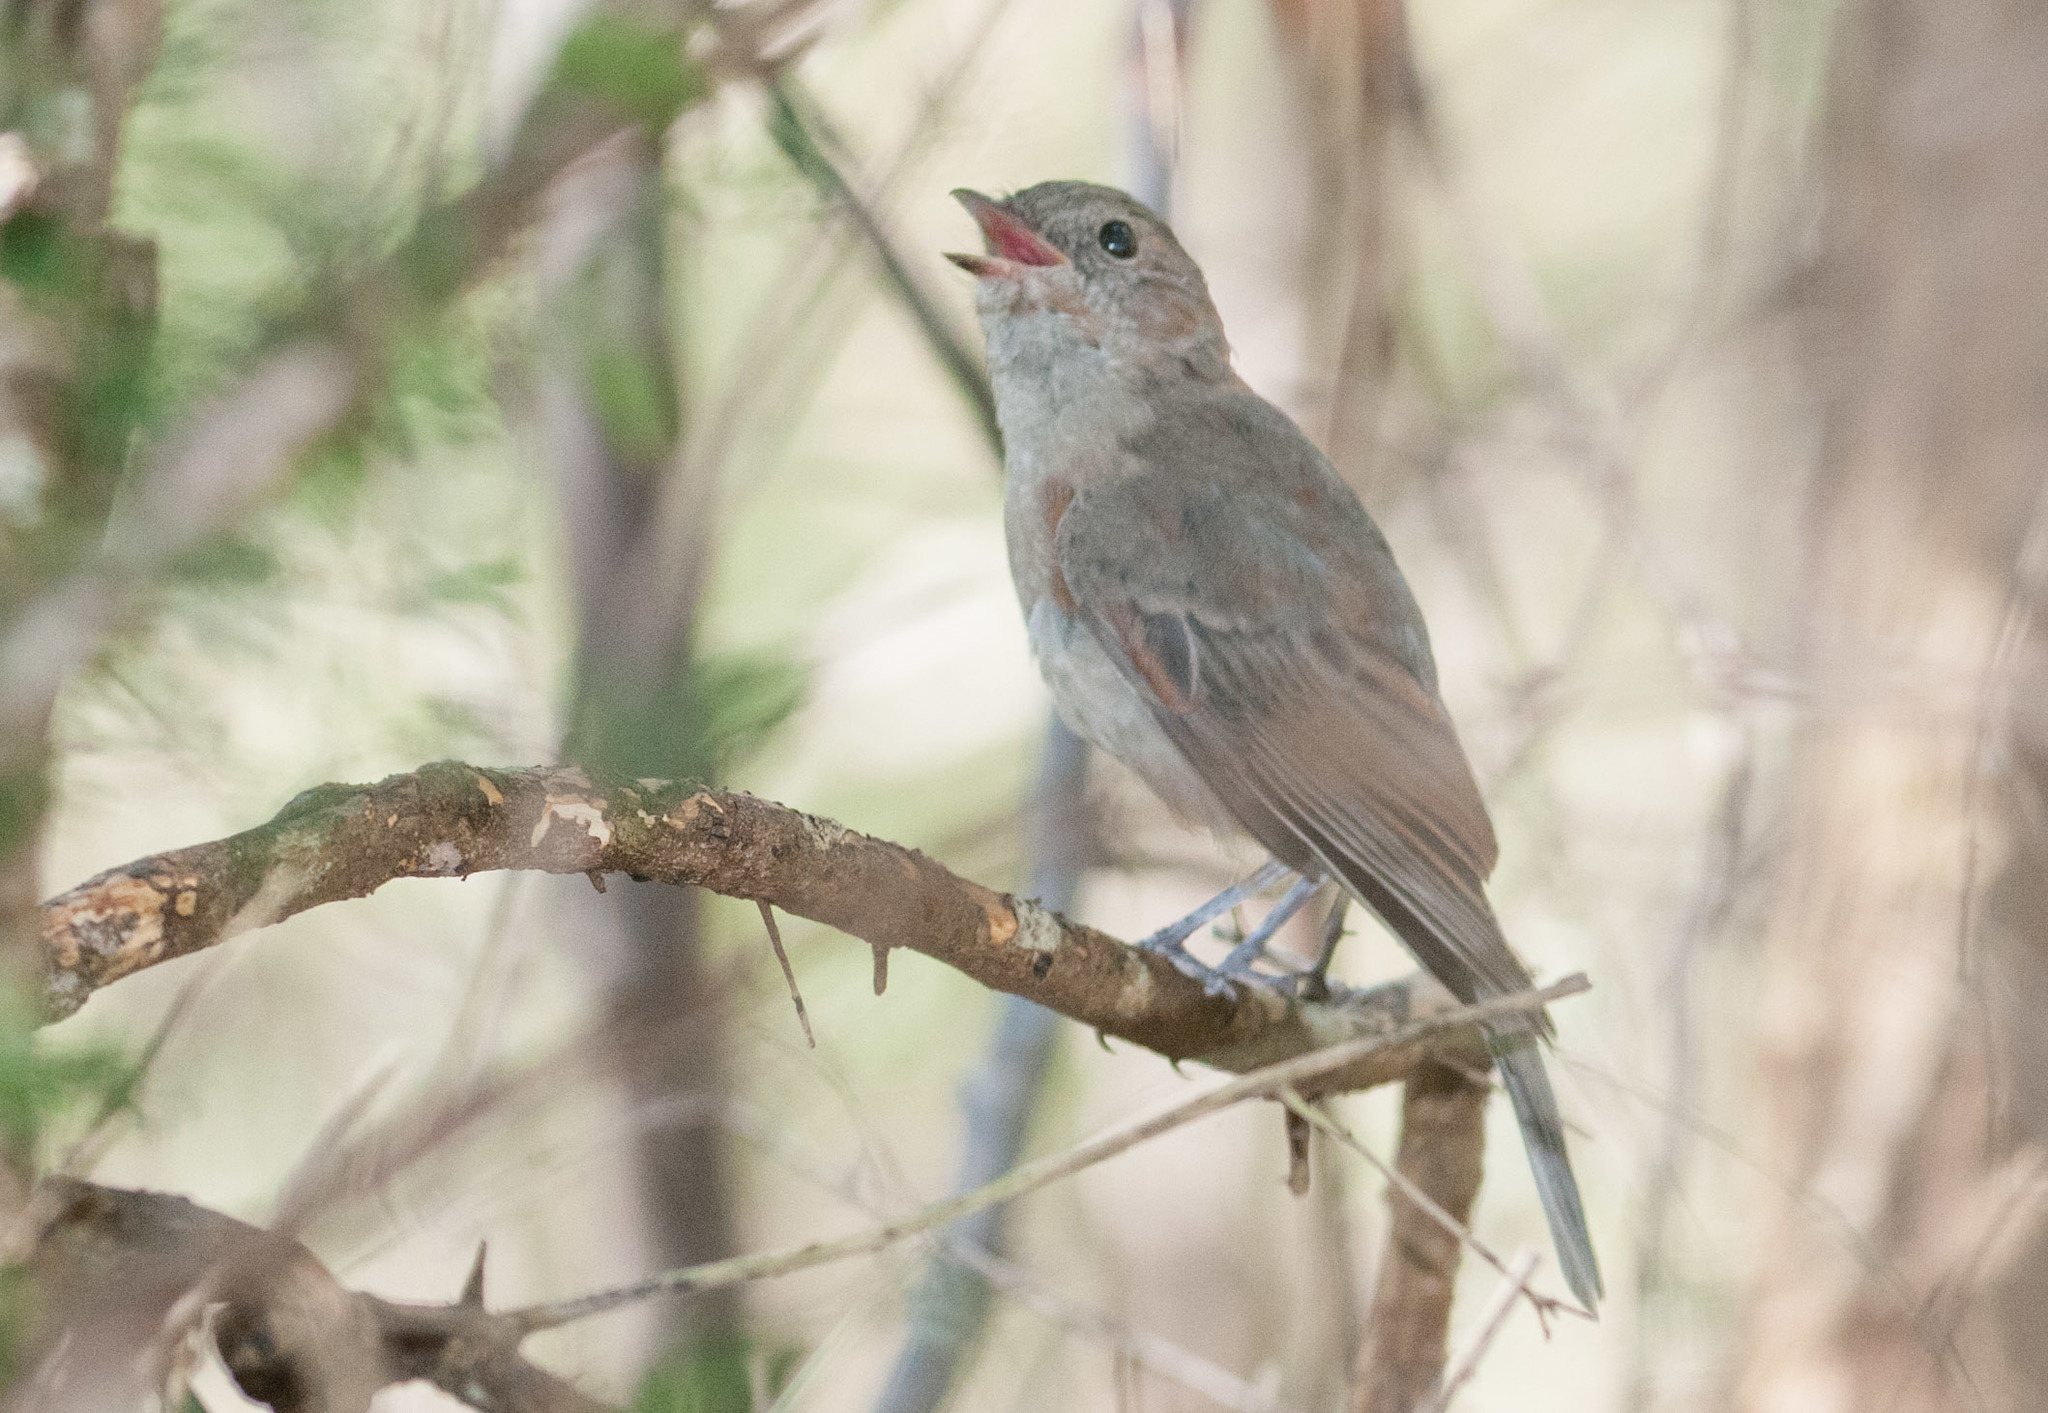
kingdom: Animalia
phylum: Chordata
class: Aves
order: Passeriformes
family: Pachycephalidae
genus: Pachycephala
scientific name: Pachycephala pectoralis
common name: Australian golden whistler
